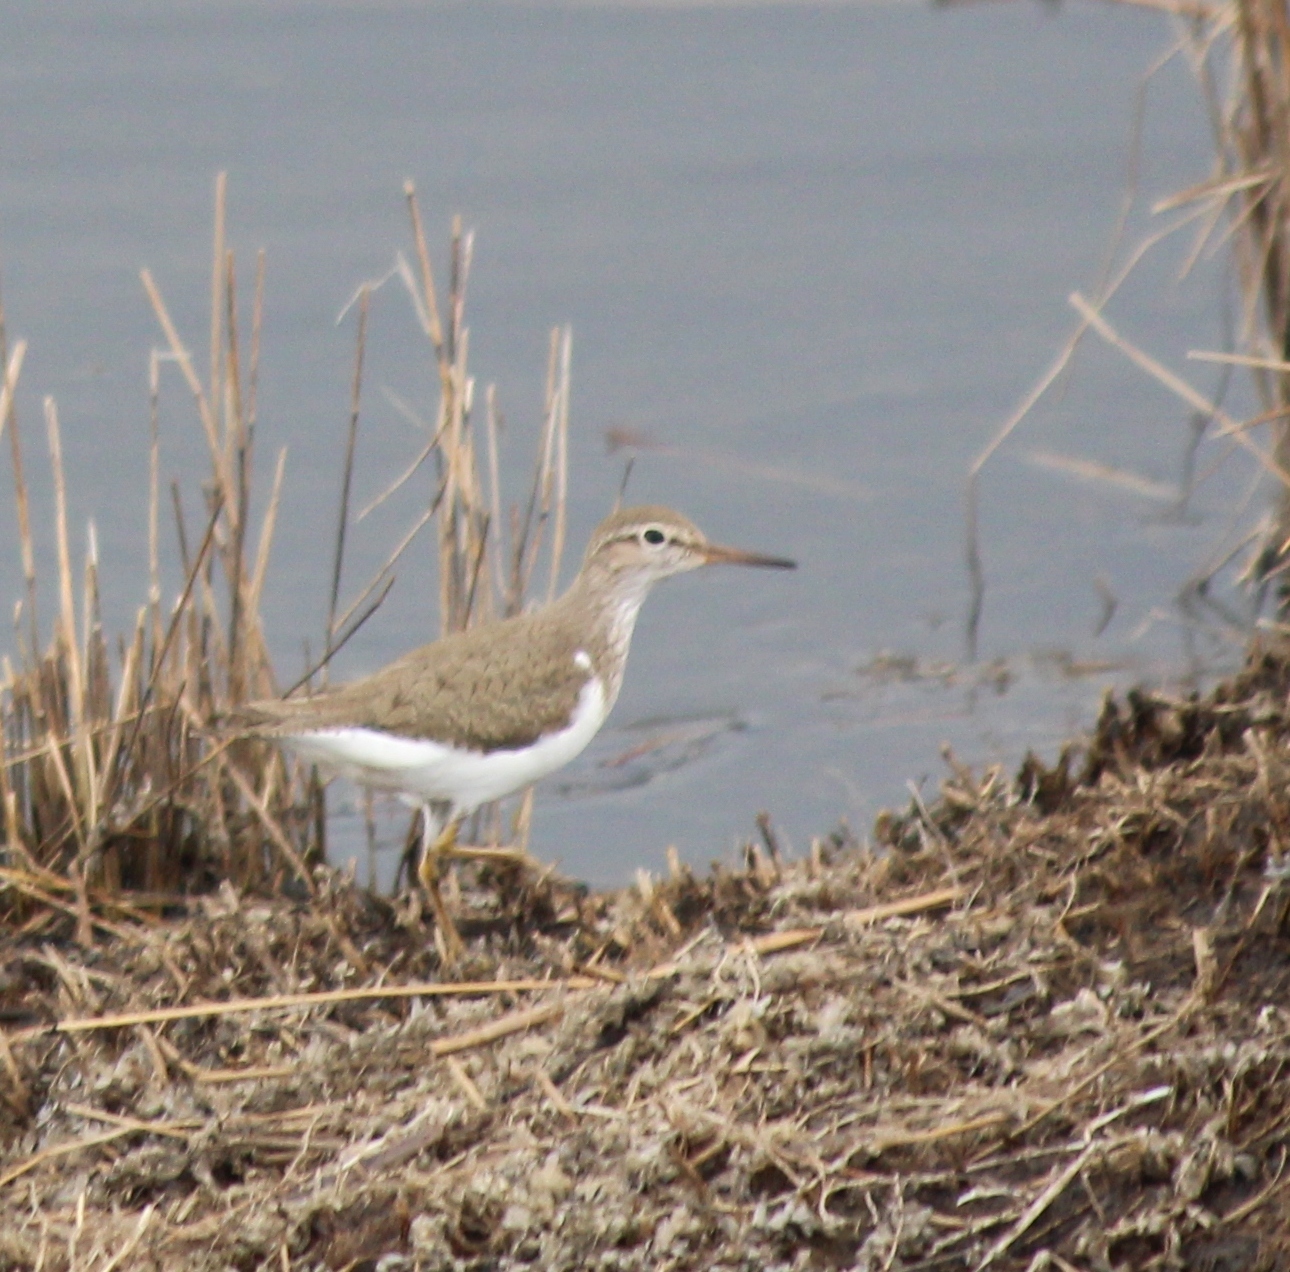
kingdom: Animalia
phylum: Chordata
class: Aves
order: Charadriiformes
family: Scolopacidae
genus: Actitis
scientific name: Actitis hypoleucos
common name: Common sandpiper
